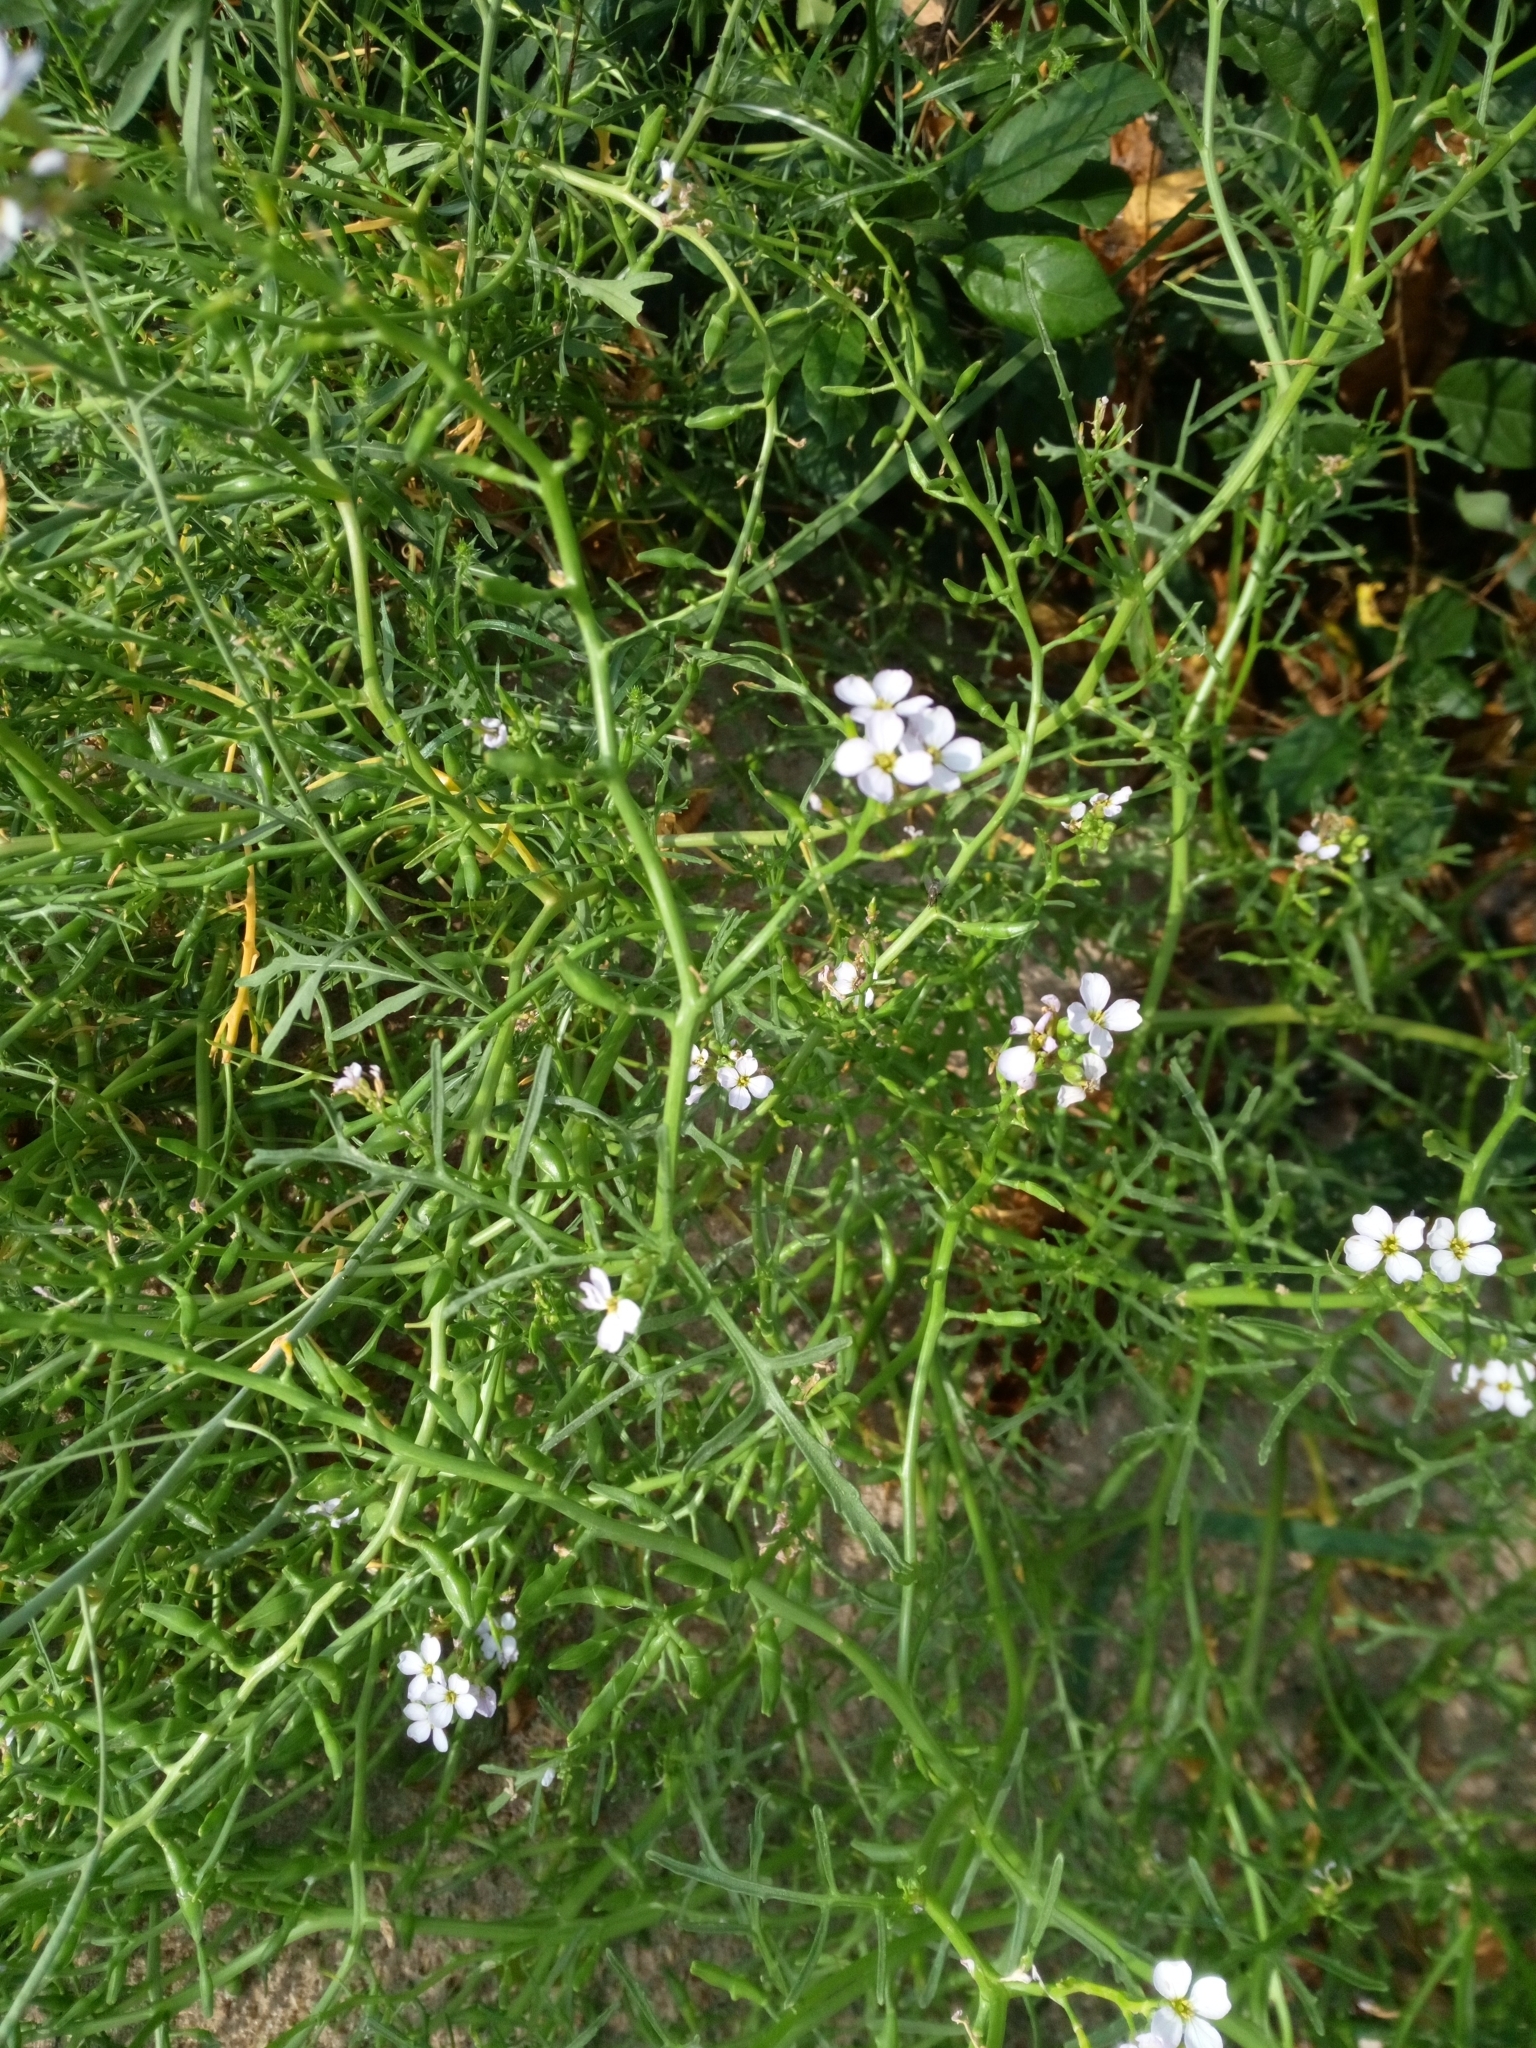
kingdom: Plantae
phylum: Tracheophyta
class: Magnoliopsida
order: Brassicales
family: Brassicaceae
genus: Cakile
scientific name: Cakile maritima
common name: Sea rocket
